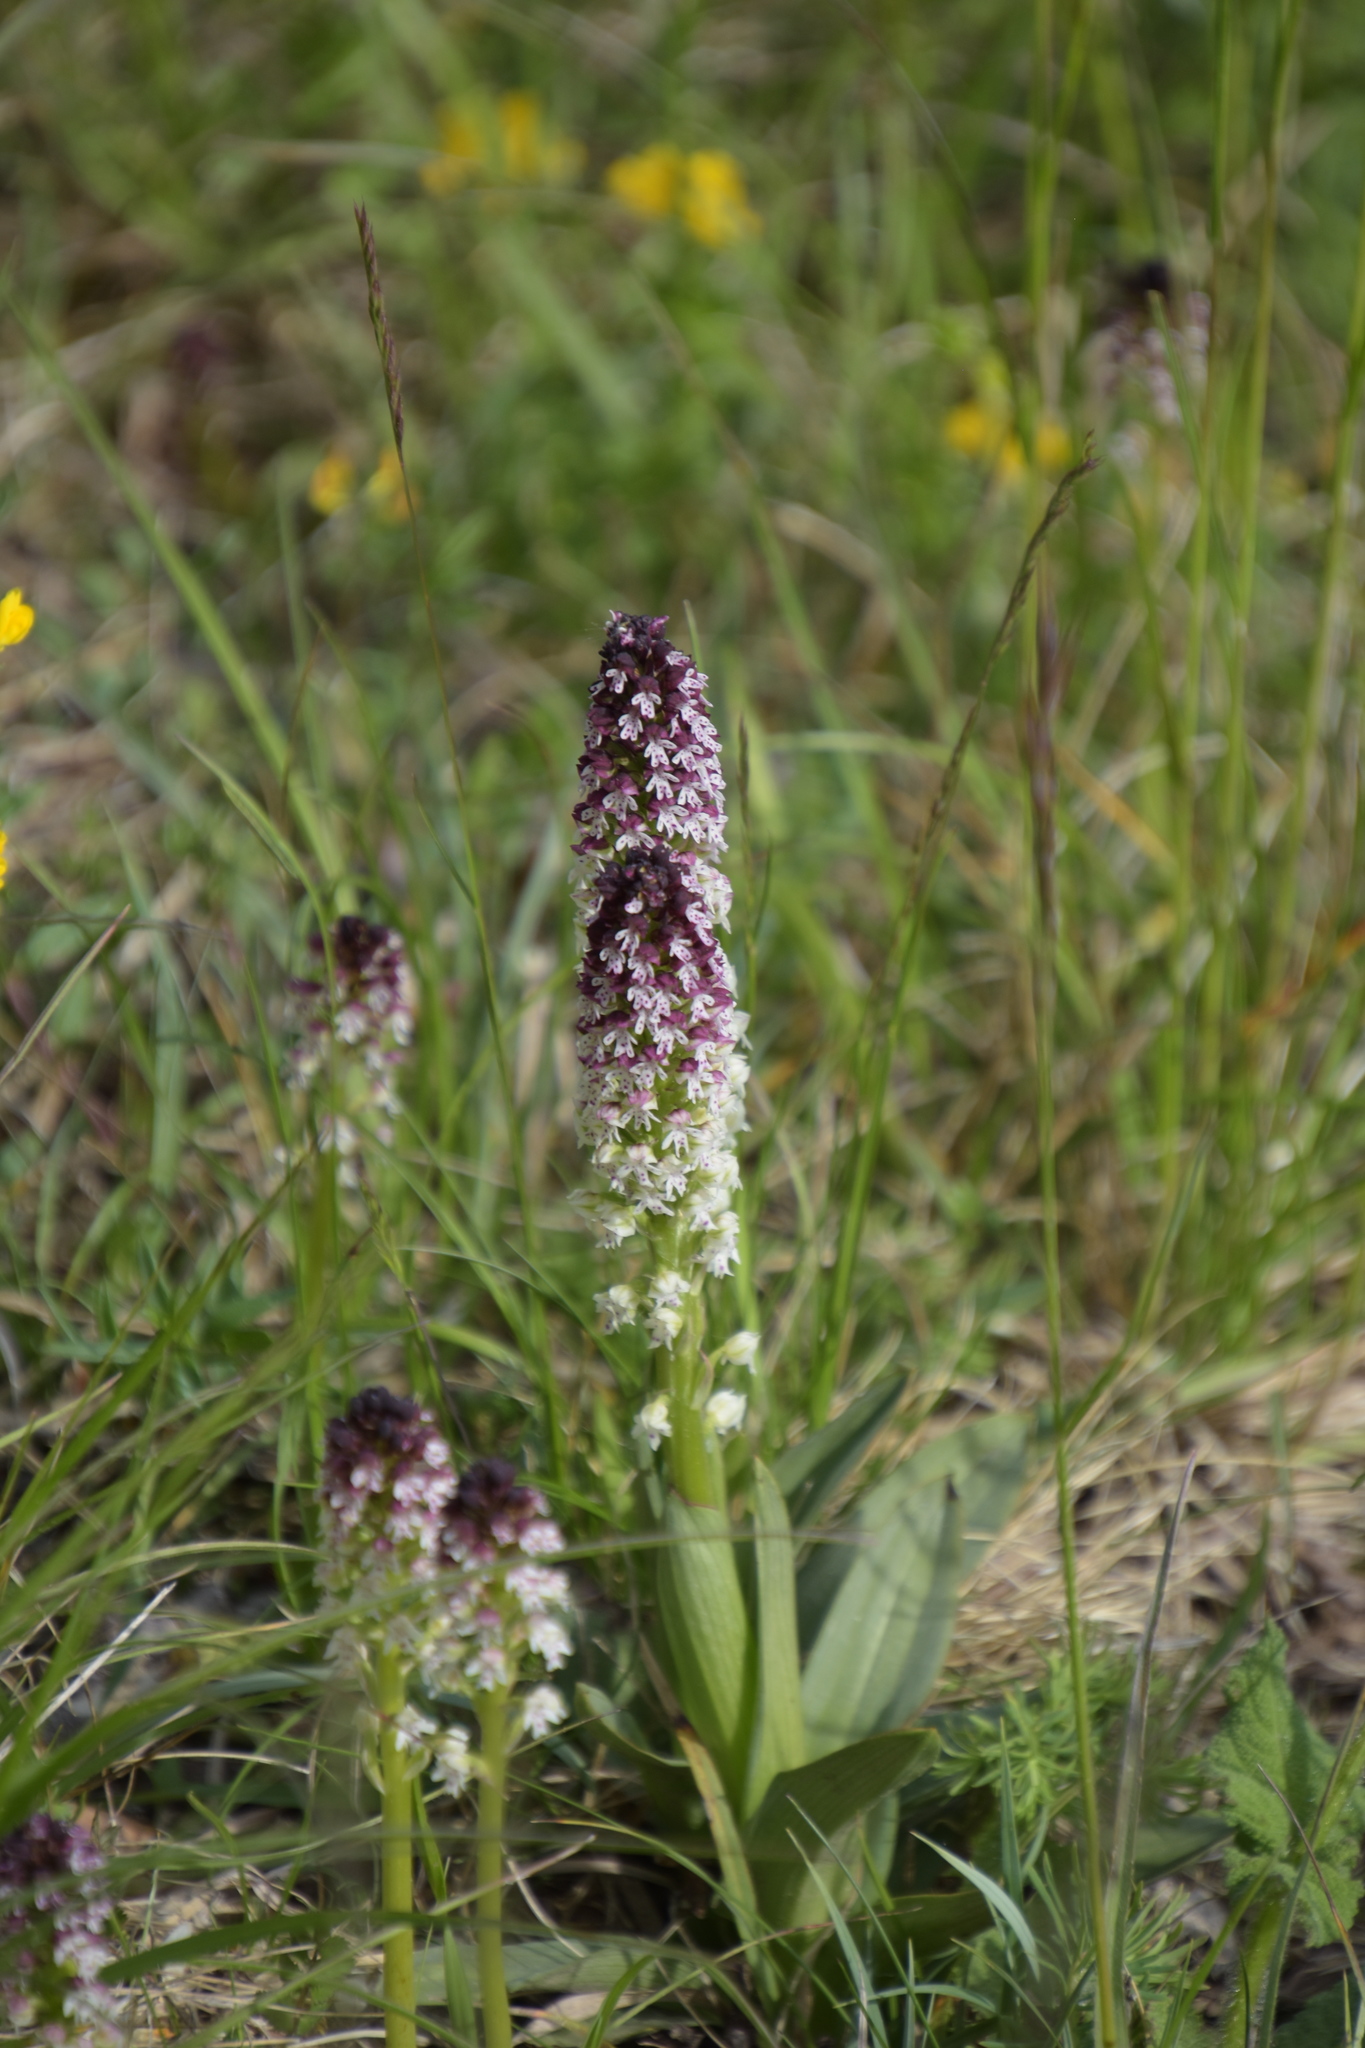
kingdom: Plantae
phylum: Tracheophyta
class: Liliopsida
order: Asparagales
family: Orchidaceae
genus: Neotinea
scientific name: Neotinea ustulata
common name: Burnt orchid
